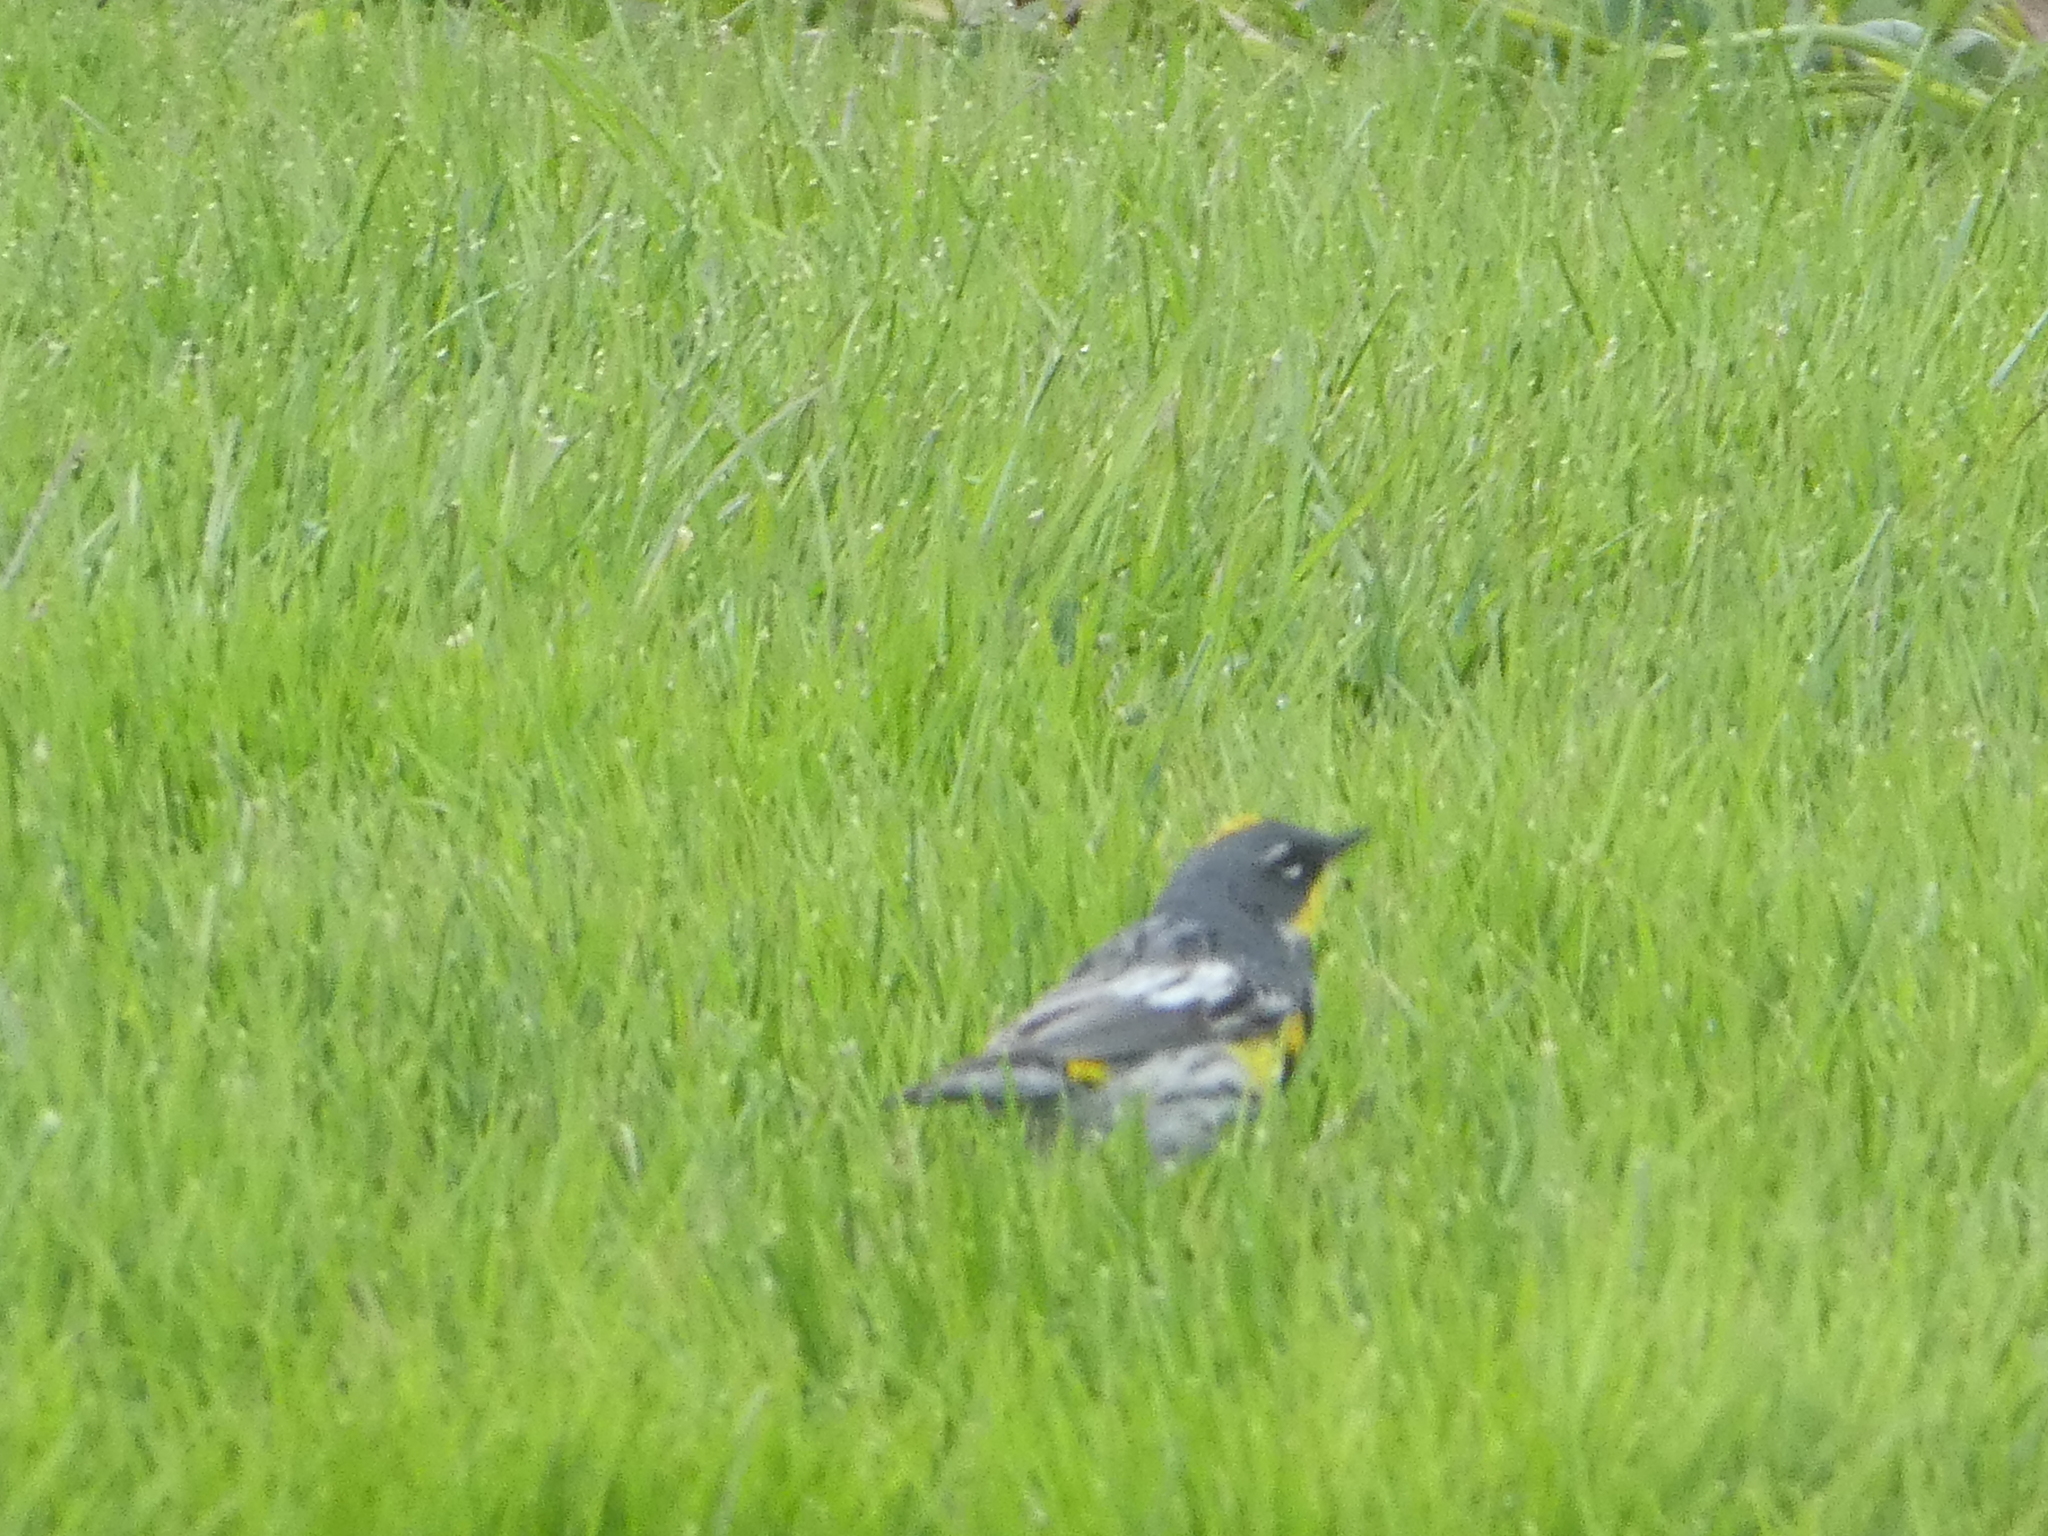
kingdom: Animalia
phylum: Chordata
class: Aves
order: Passeriformes
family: Parulidae
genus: Setophaga
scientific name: Setophaga coronata
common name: Myrtle warbler
